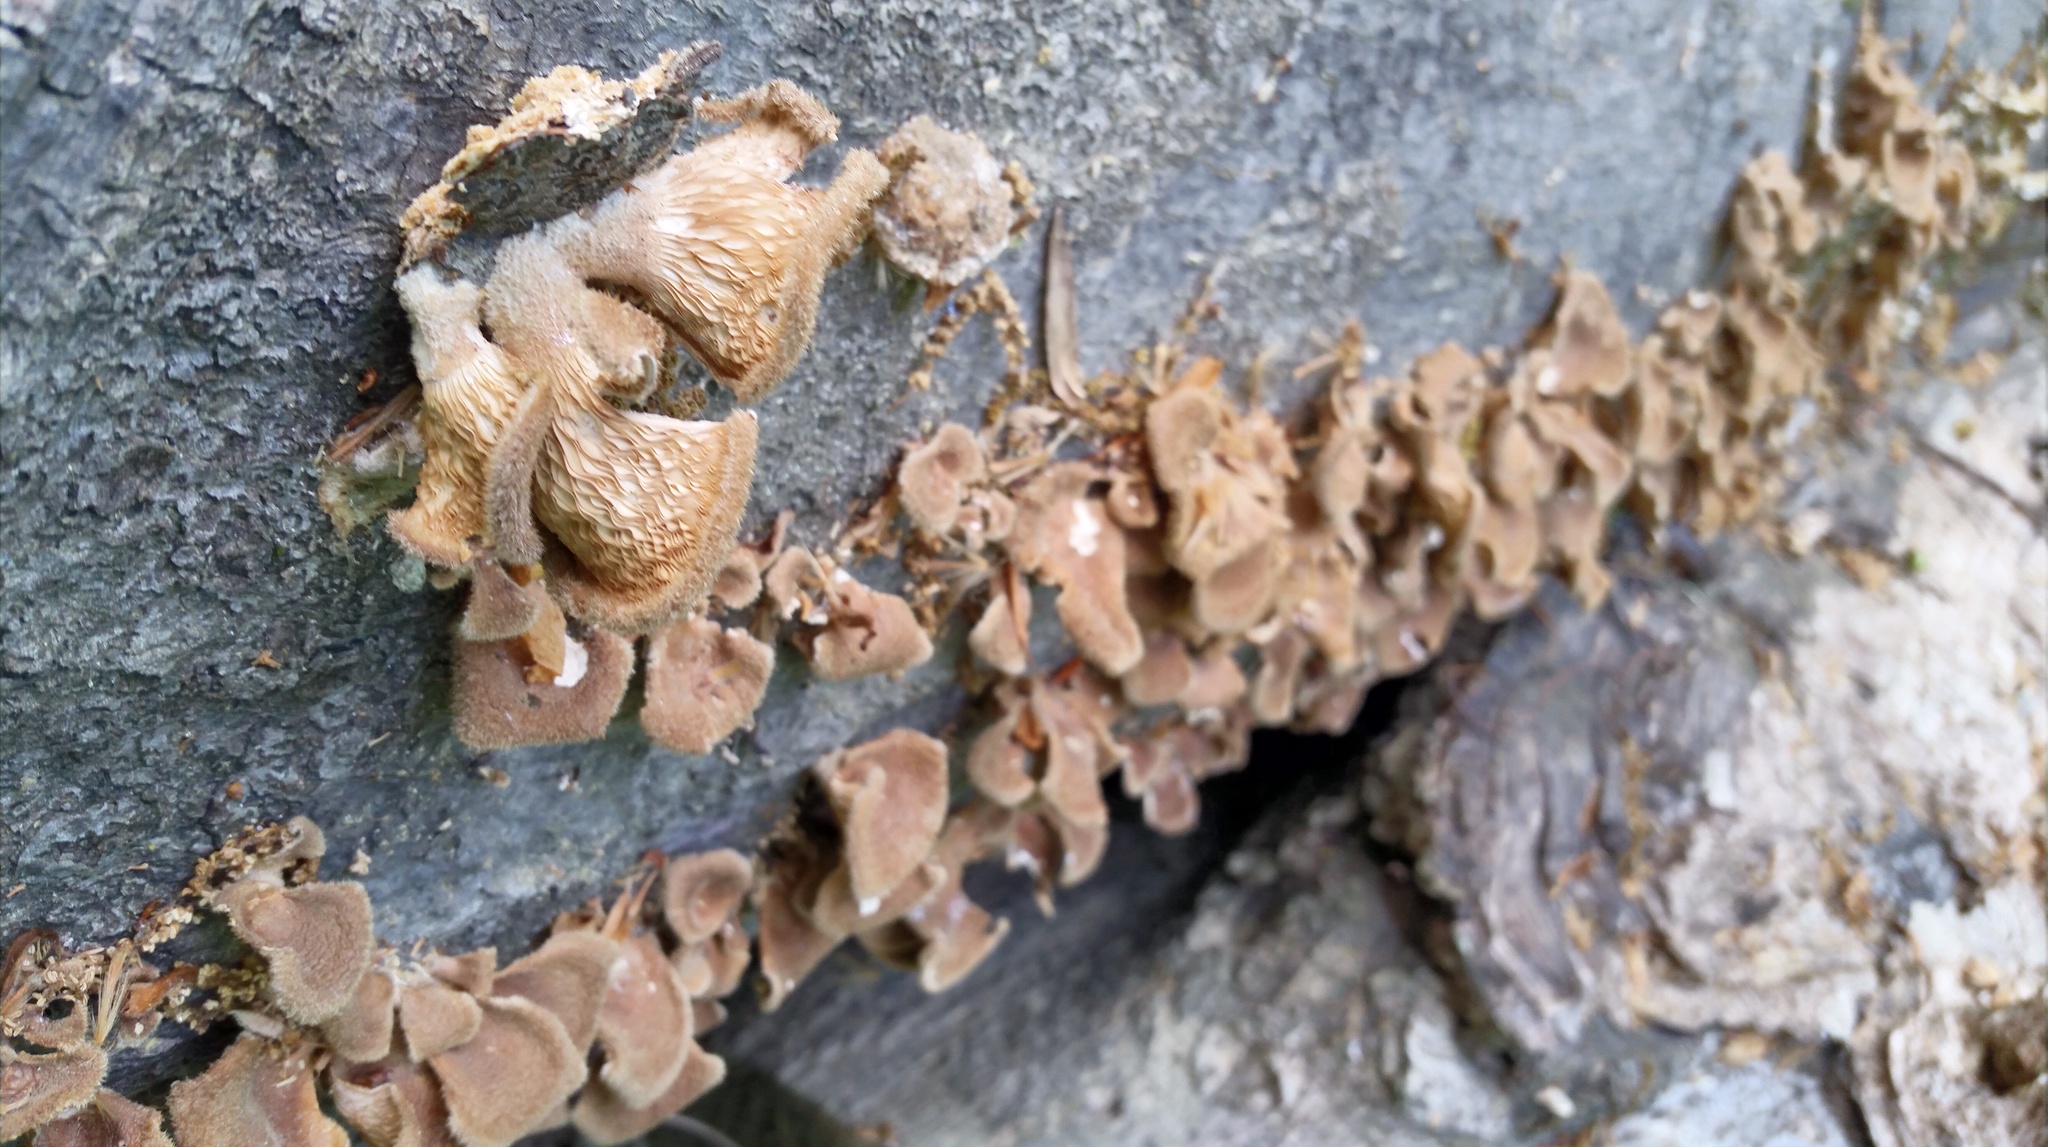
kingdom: Fungi
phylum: Basidiomycota
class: Agaricomycetes
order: Polyporales
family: Panaceae
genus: Panus
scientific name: Panus neostrigosus
